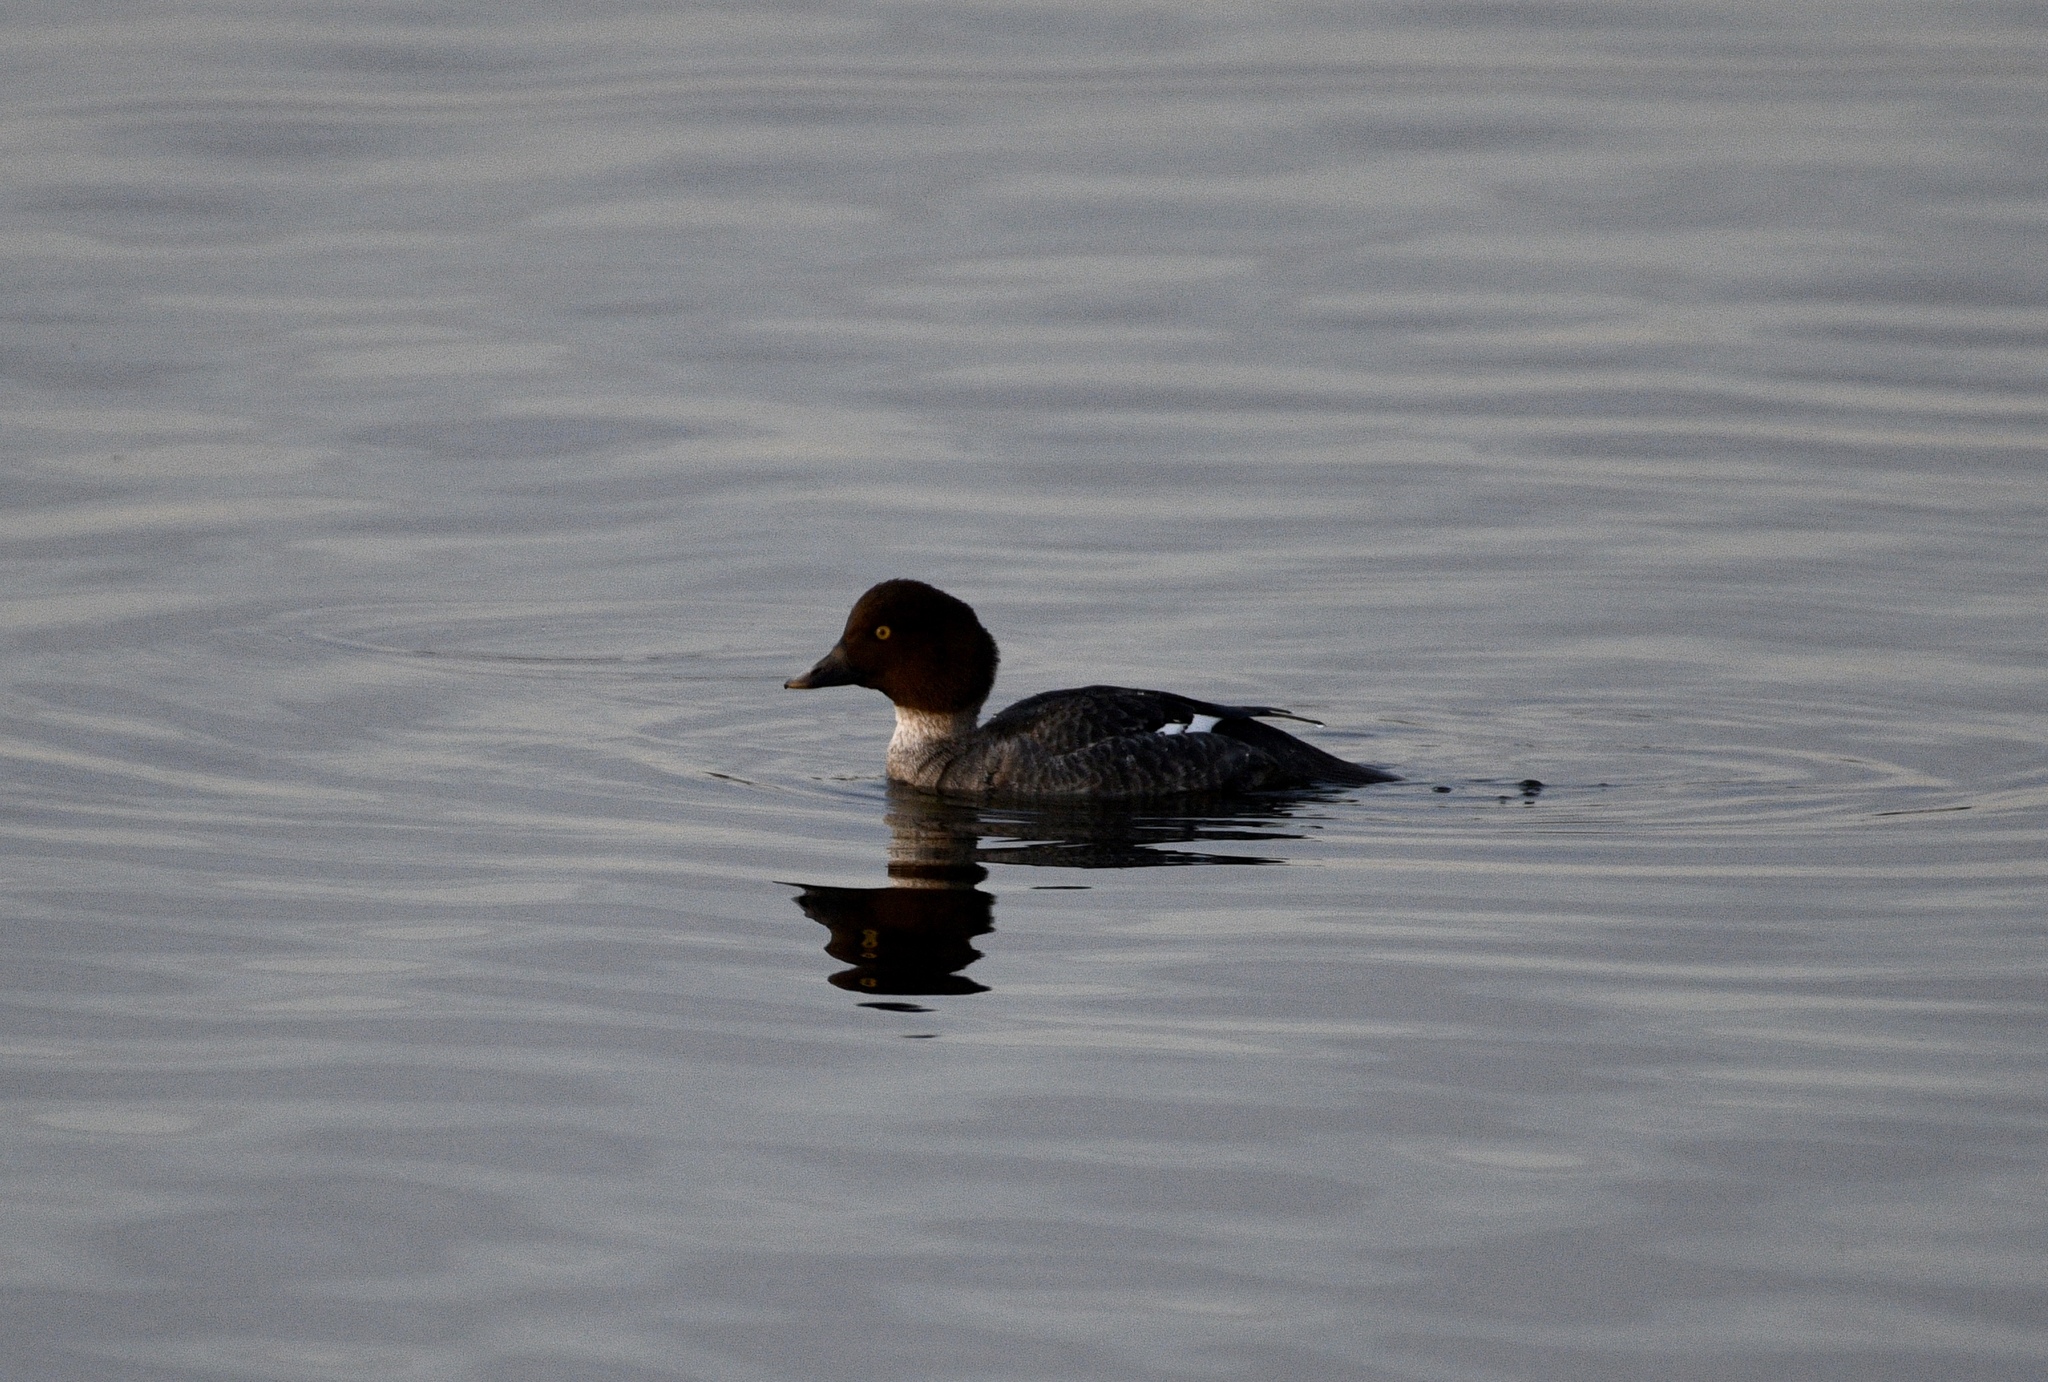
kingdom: Animalia
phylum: Chordata
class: Aves
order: Anseriformes
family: Anatidae
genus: Bucephala
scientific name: Bucephala clangula
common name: Common goldeneye
